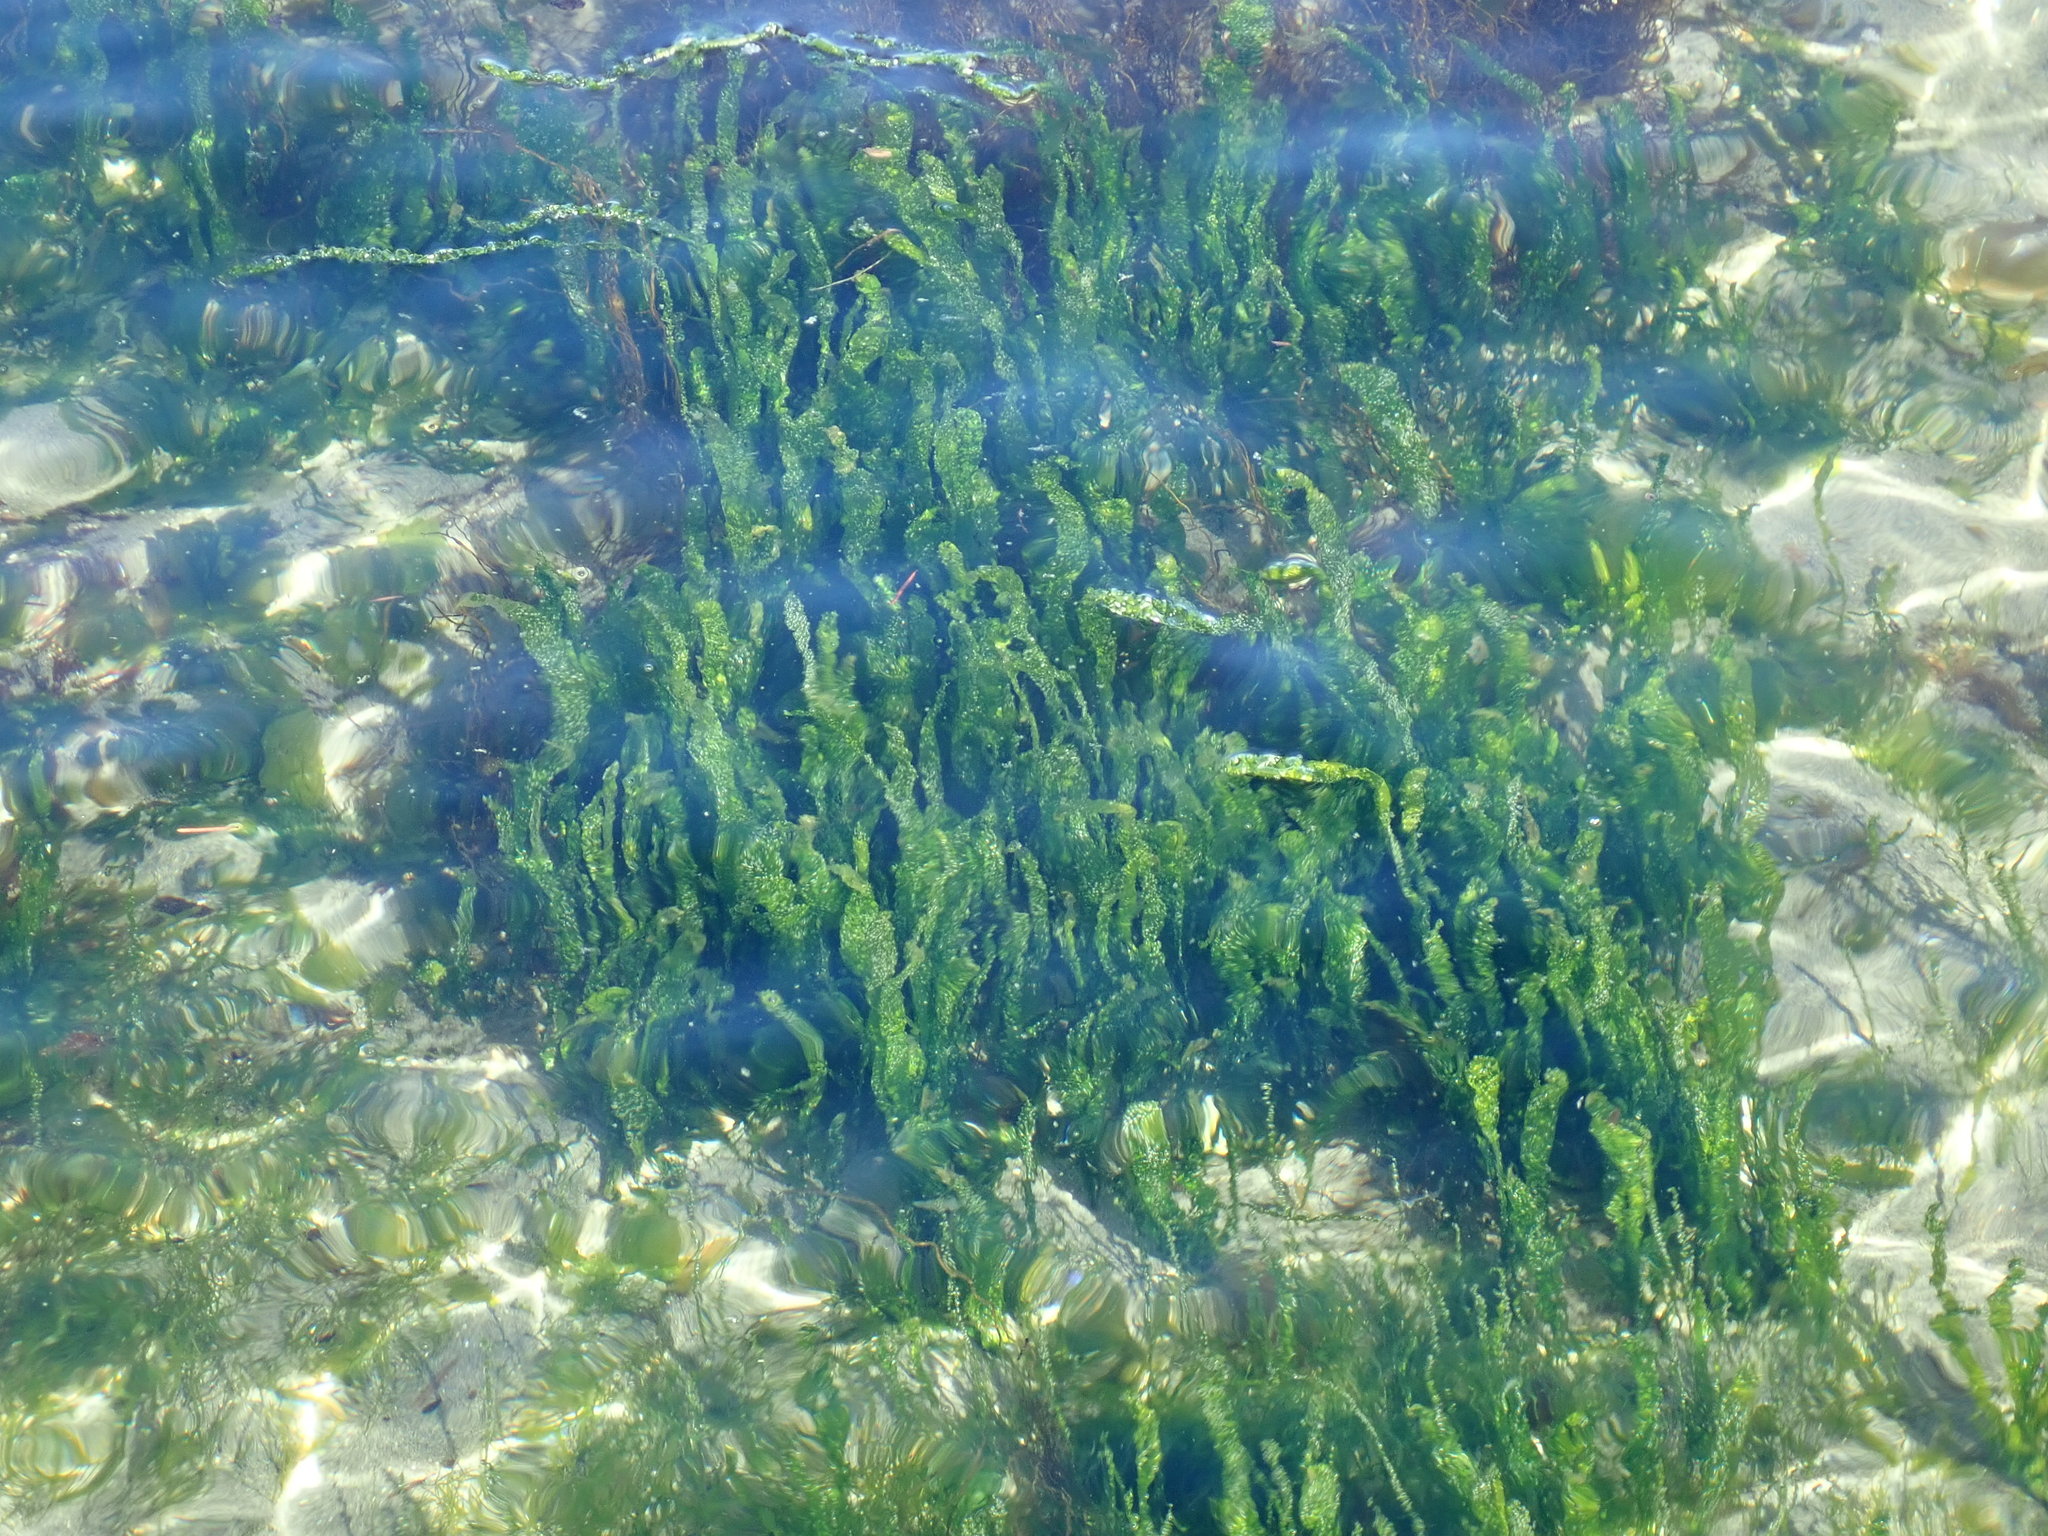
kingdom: Plantae
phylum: Chlorophyta
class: Ulvophyceae
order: Ulvales
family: Ulvaceae
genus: Ulva
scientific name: Ulva intestinalis
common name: Gut weed
